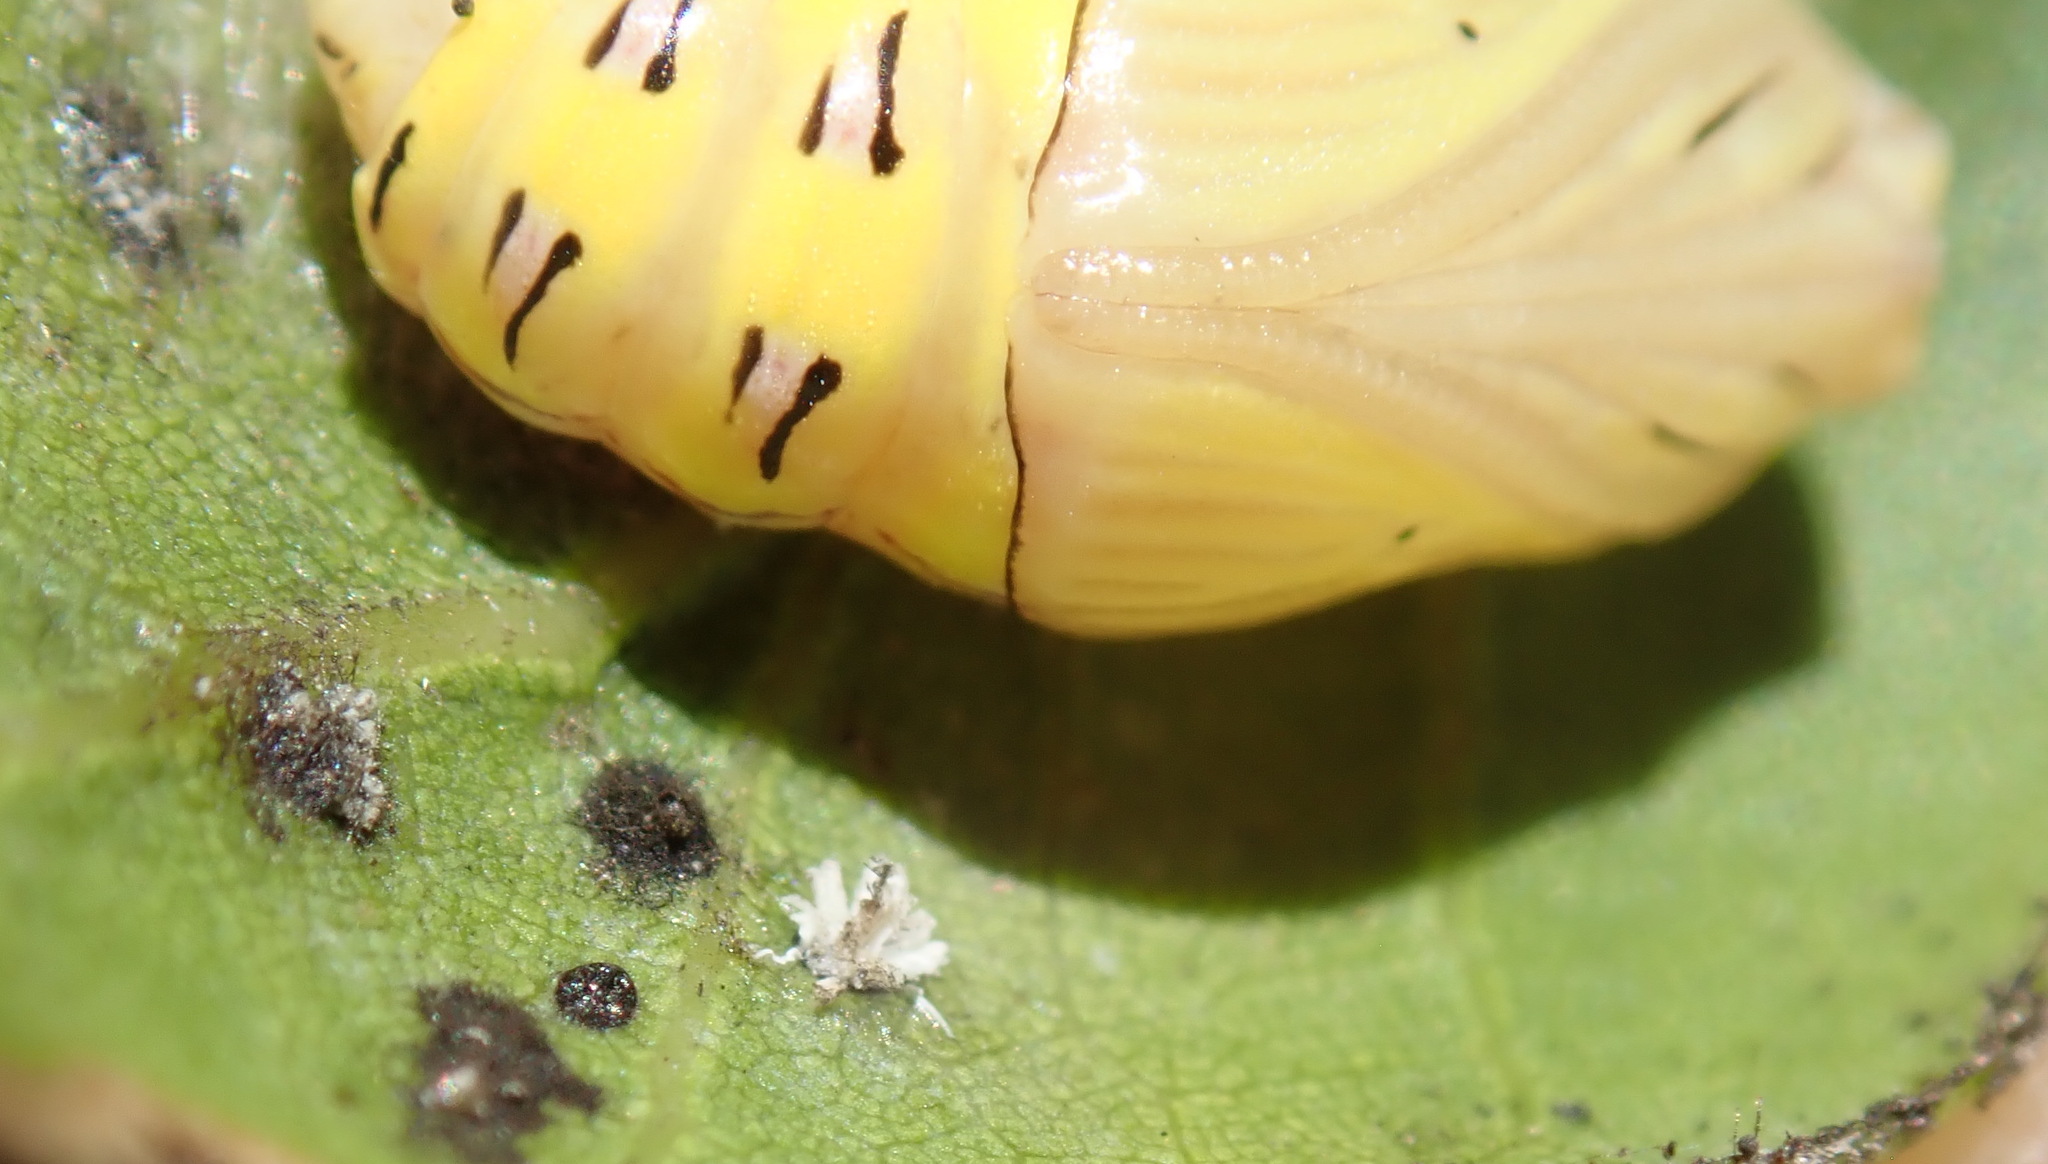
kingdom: Animalia
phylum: Arthropoda
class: Insecta
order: Lepidoptera
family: Notodontidae
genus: Phryganidia
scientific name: Phryganidia californica
